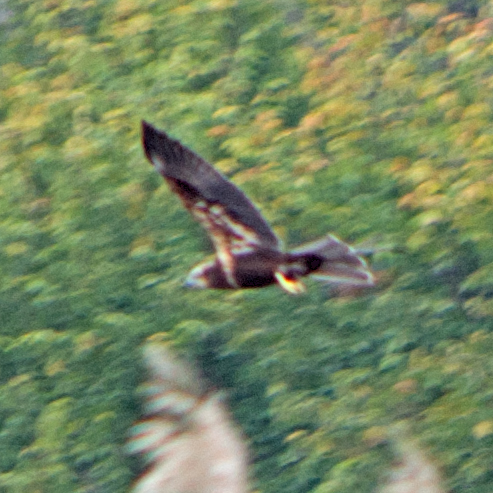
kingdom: Animalia
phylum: Chordata
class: Aves
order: Accipitriformes
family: Accipitridae
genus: Circus
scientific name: Circus aeruginosus
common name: Western marsh harrier
